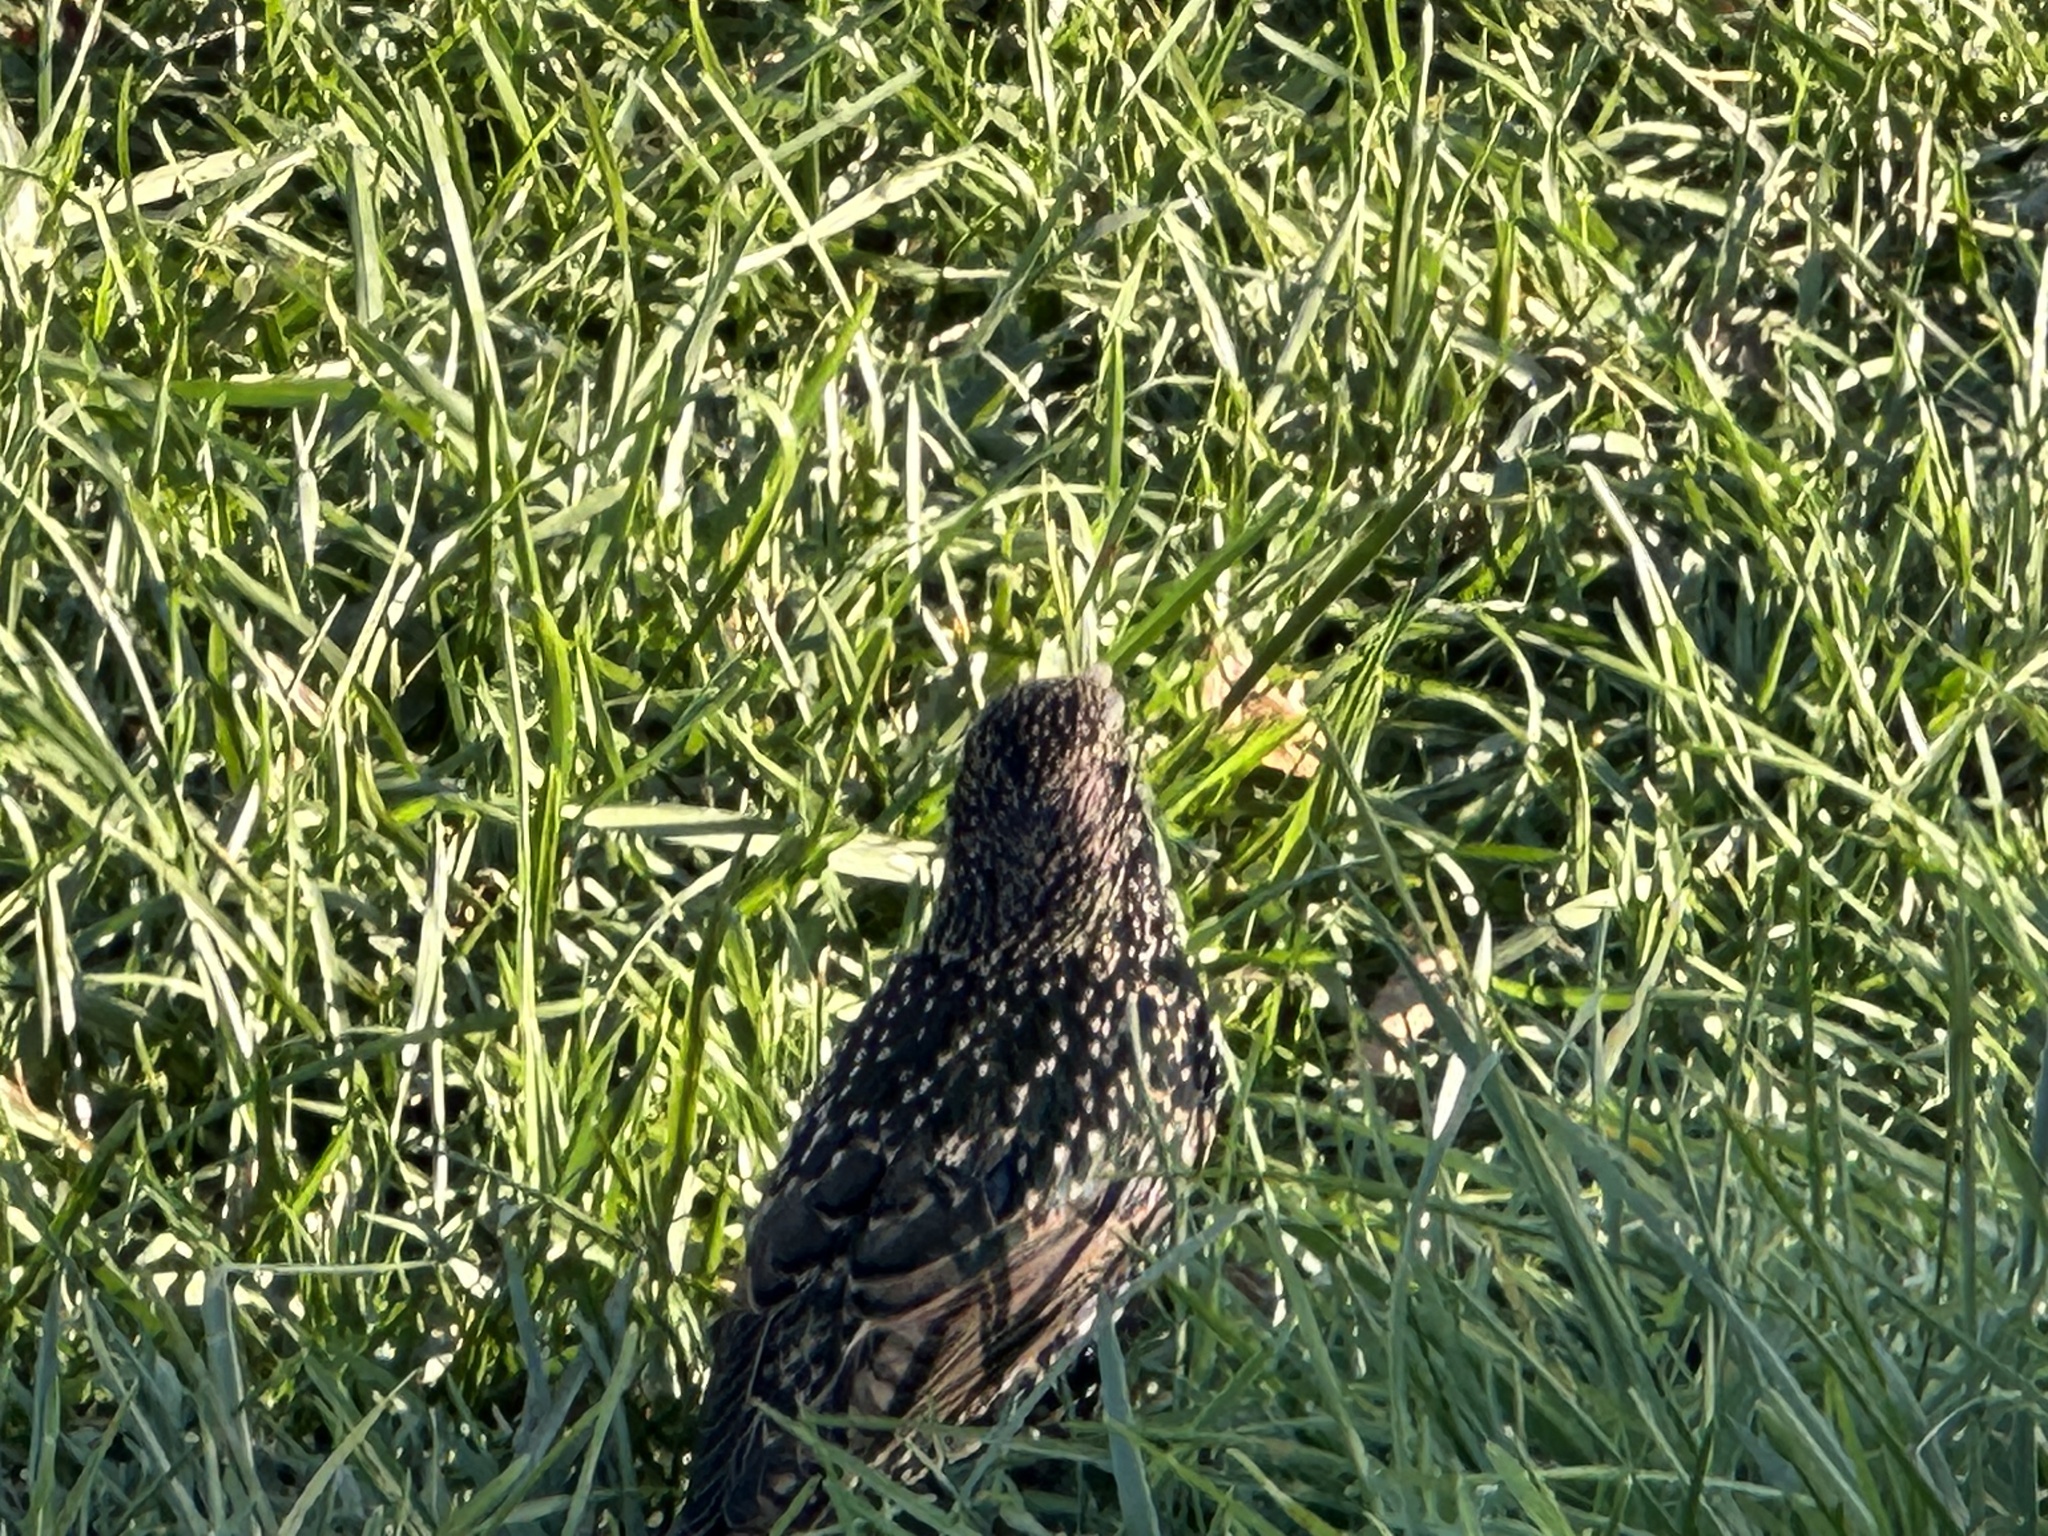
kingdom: Animalia
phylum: Chordata
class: Aves
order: Passeriformes
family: Sturnidae
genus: Sturnus
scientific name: Sturnus vulgaris
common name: Common starling
